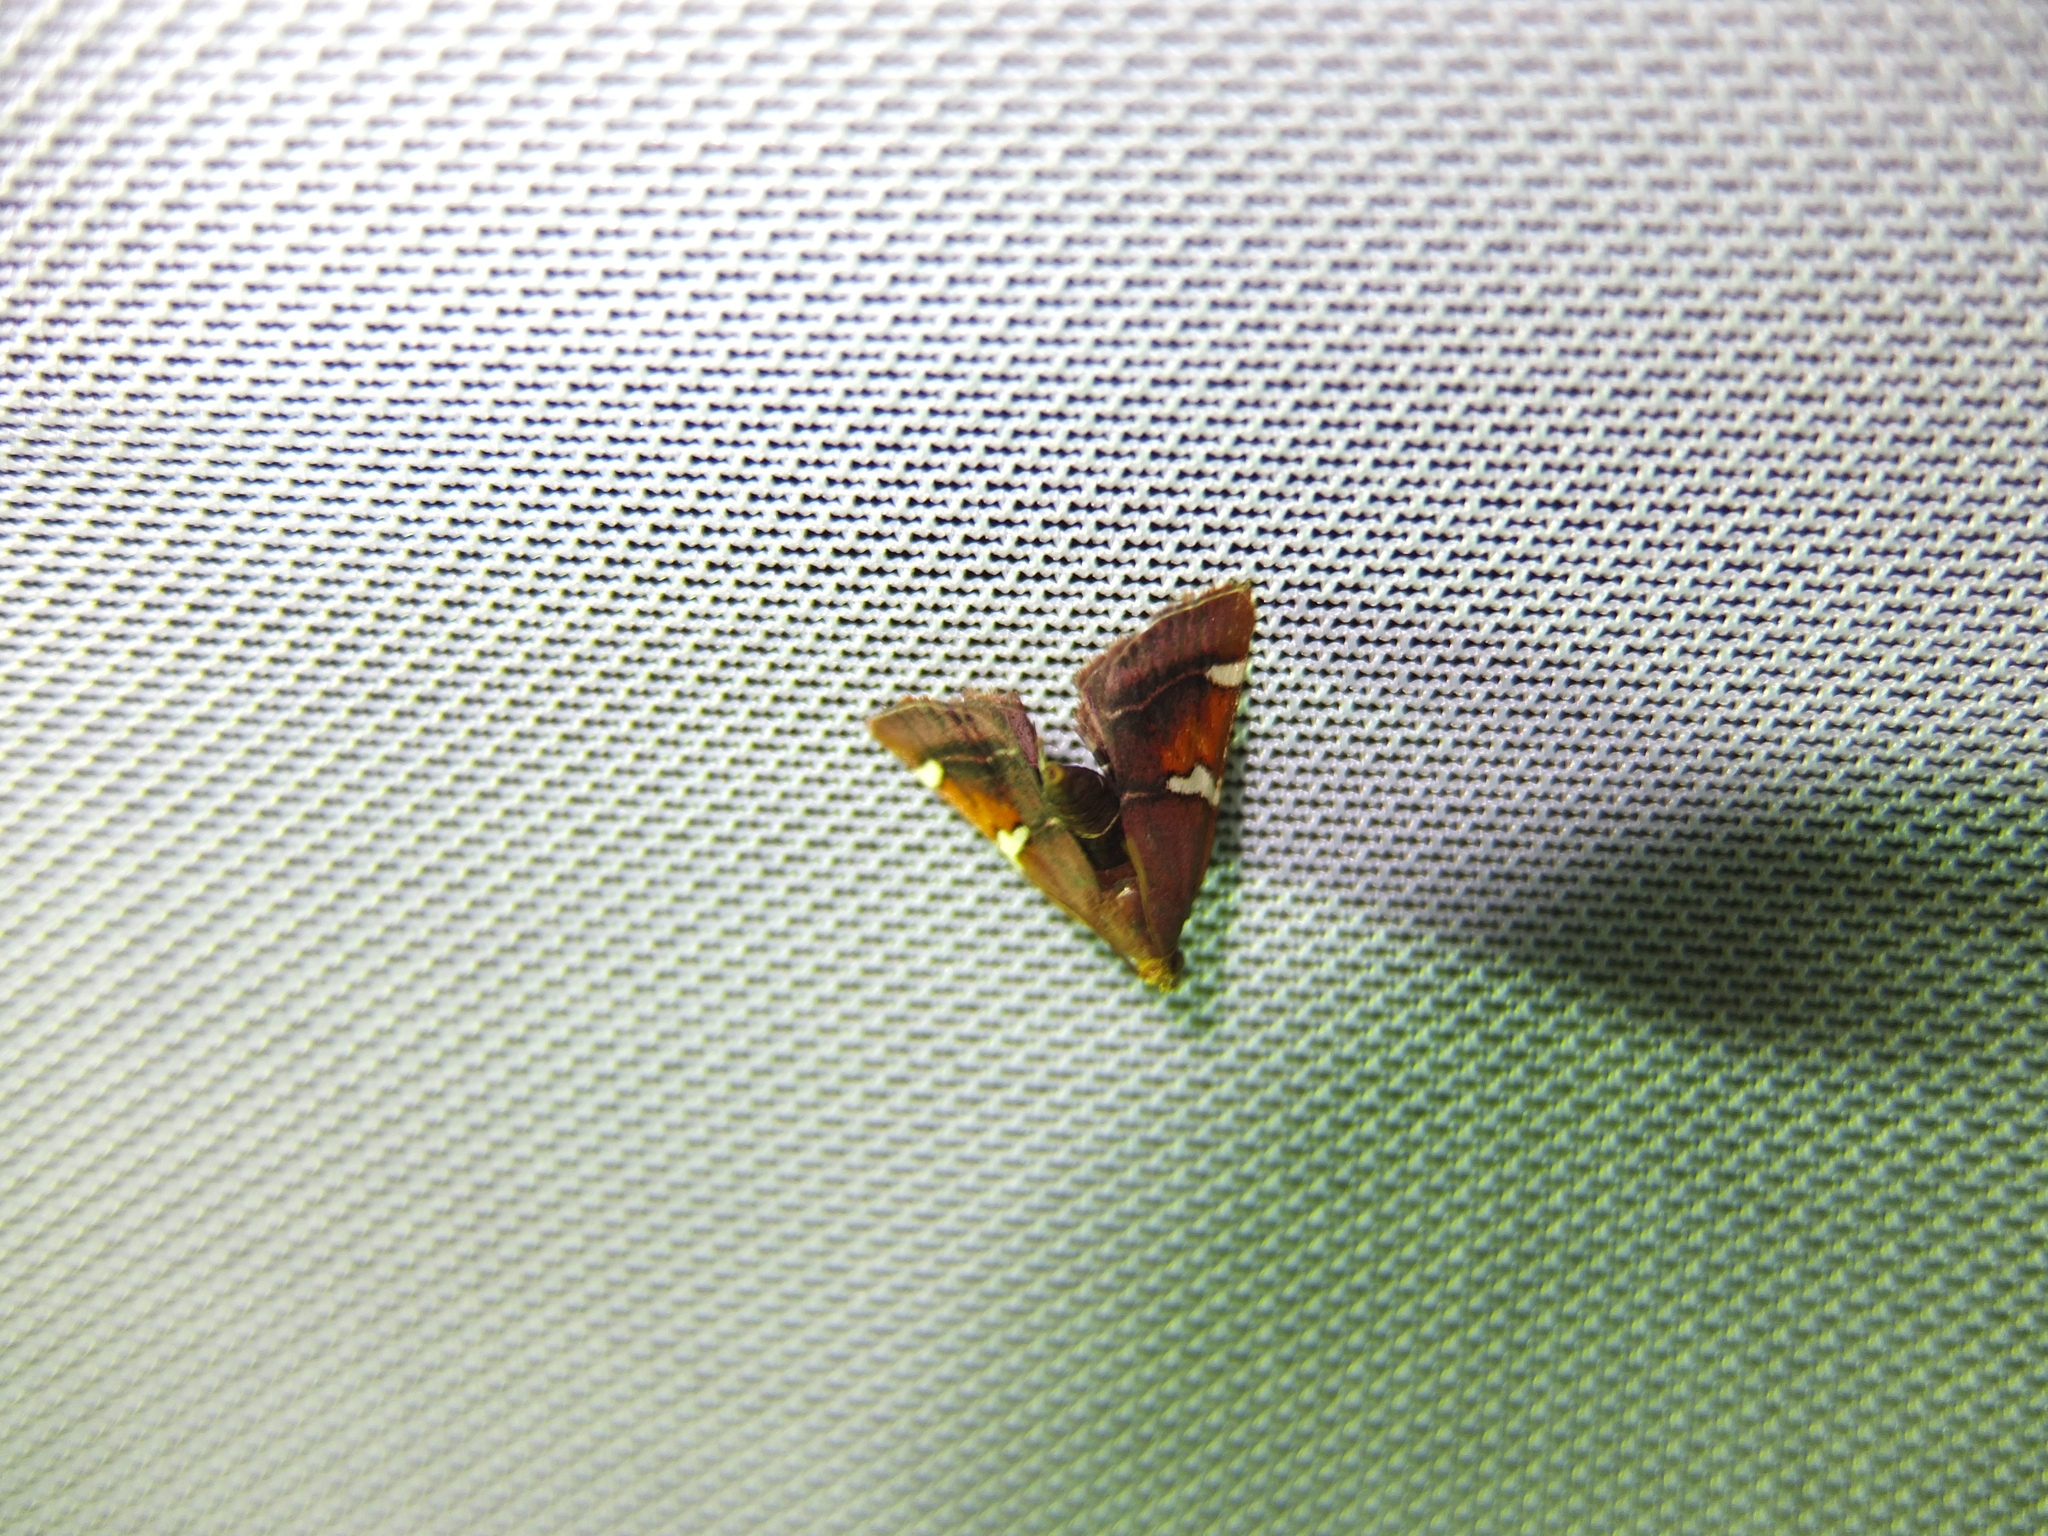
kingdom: Animalia
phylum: Arthropoda
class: Insecta
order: Lepidoptera
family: Pyralidae
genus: Pyralis
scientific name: Pyralis cardinalis
